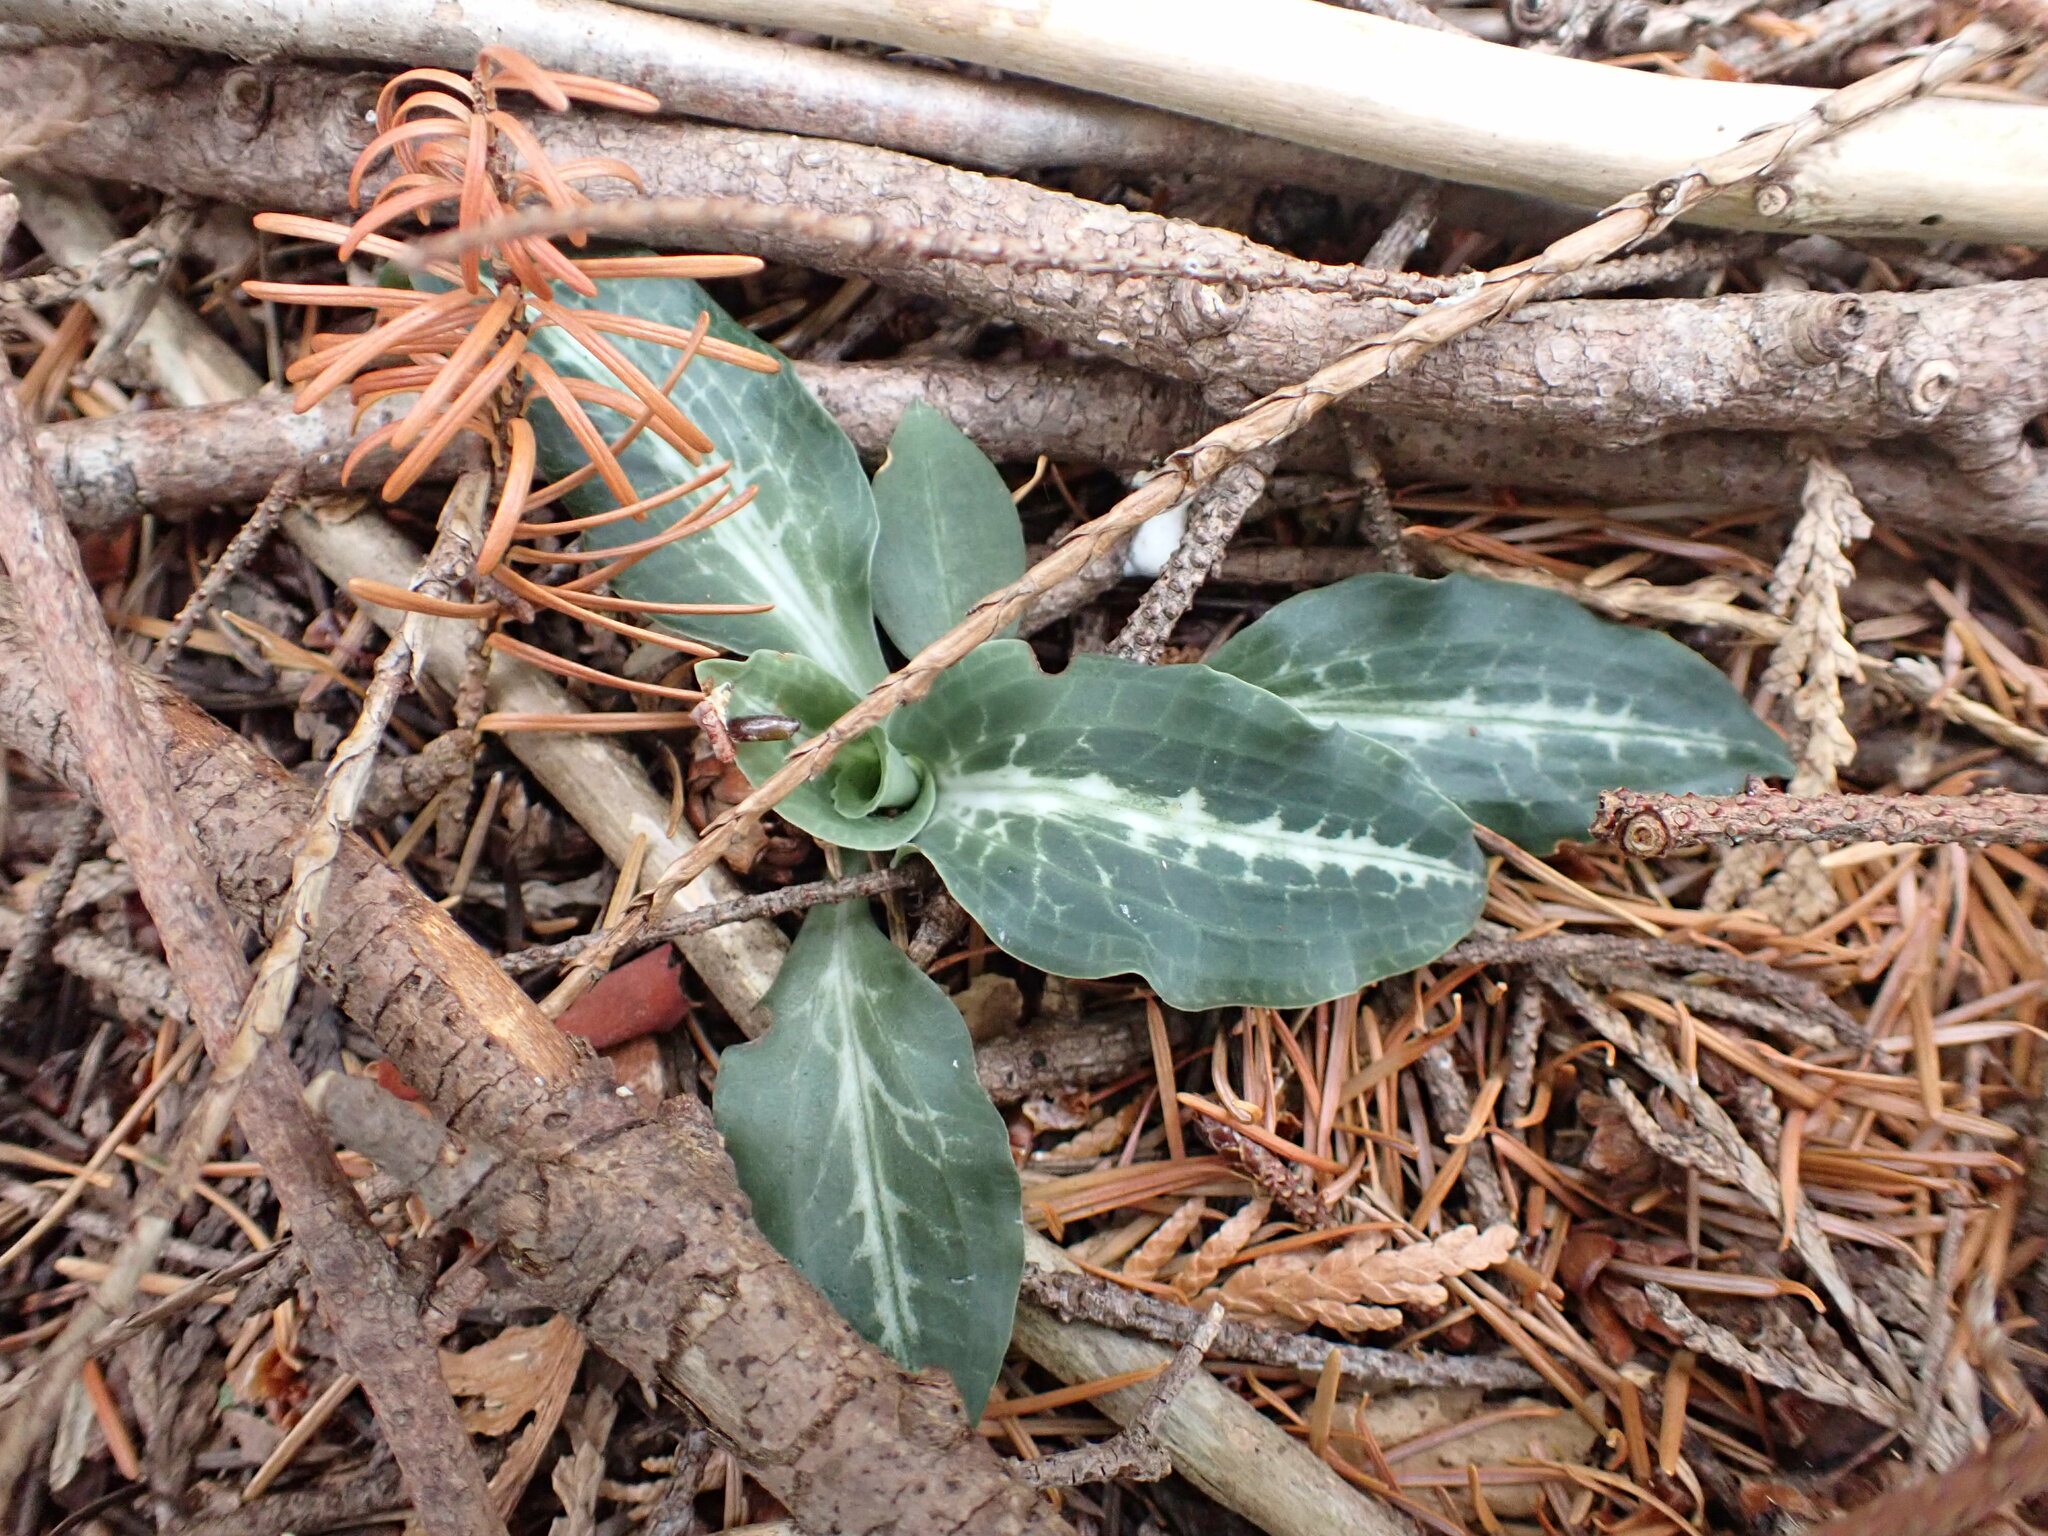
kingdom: Plantae
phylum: Tracheophyta
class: Liliopsida
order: Asparagales
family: Orchidaceae
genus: Goodyera
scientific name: Goodyera oblongifolia
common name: Giant rattlesnake-plantain
